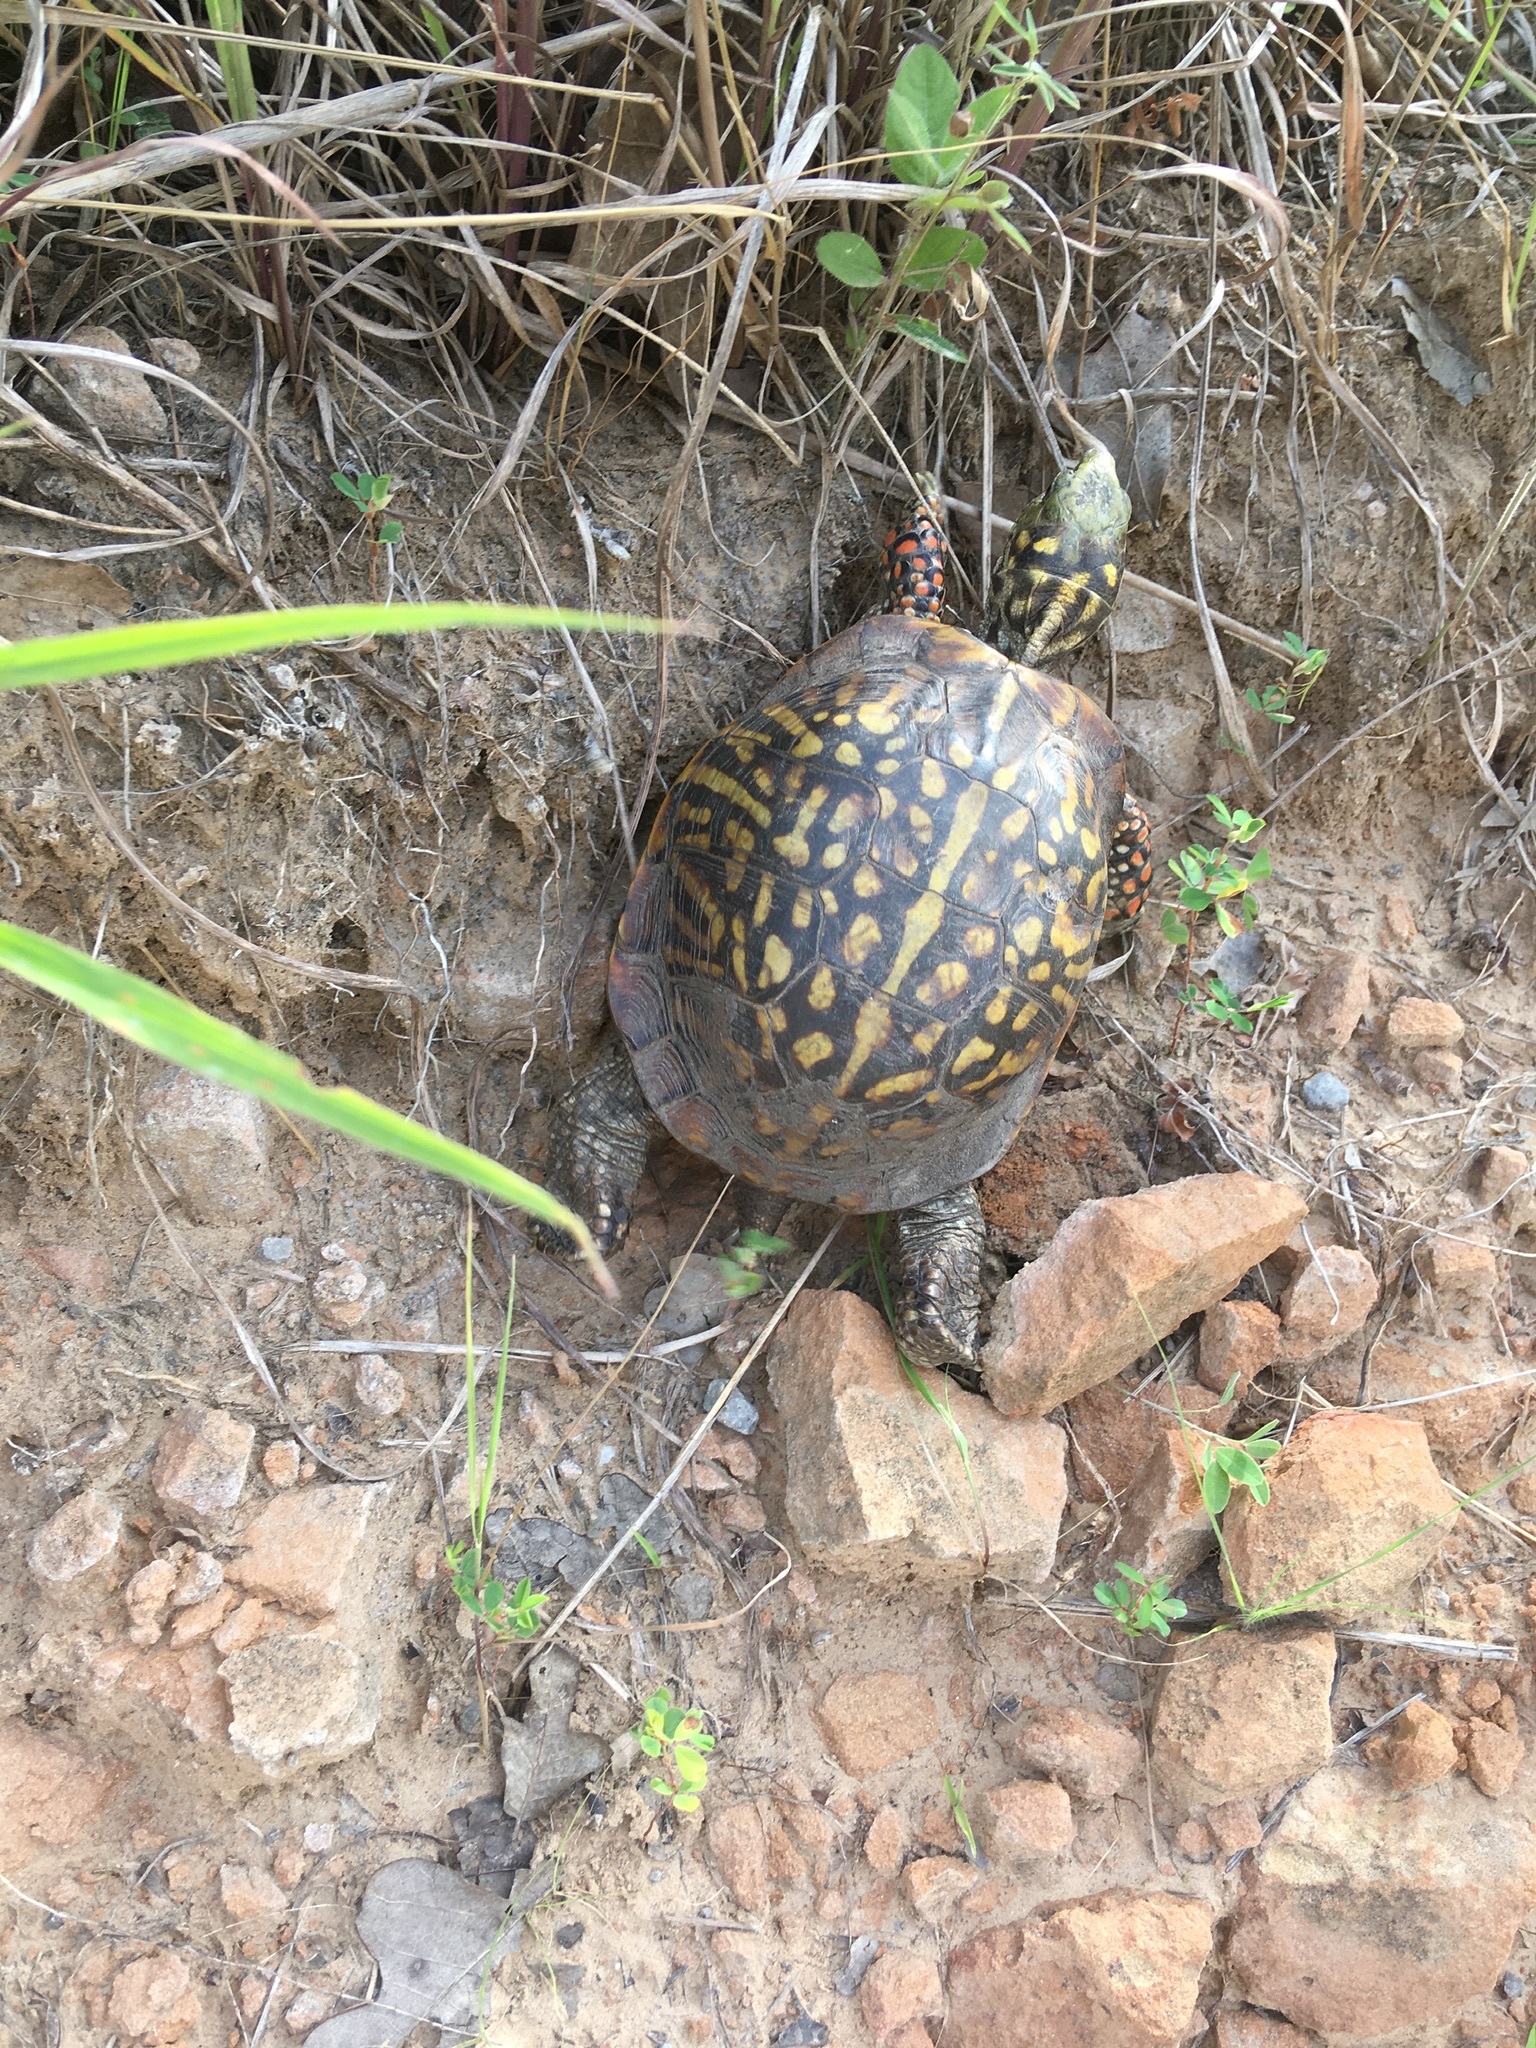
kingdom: Animalia
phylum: Chordata
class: Testudines
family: Emydidae
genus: Terrapene
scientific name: Terrapene ornata
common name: Western box turtle
